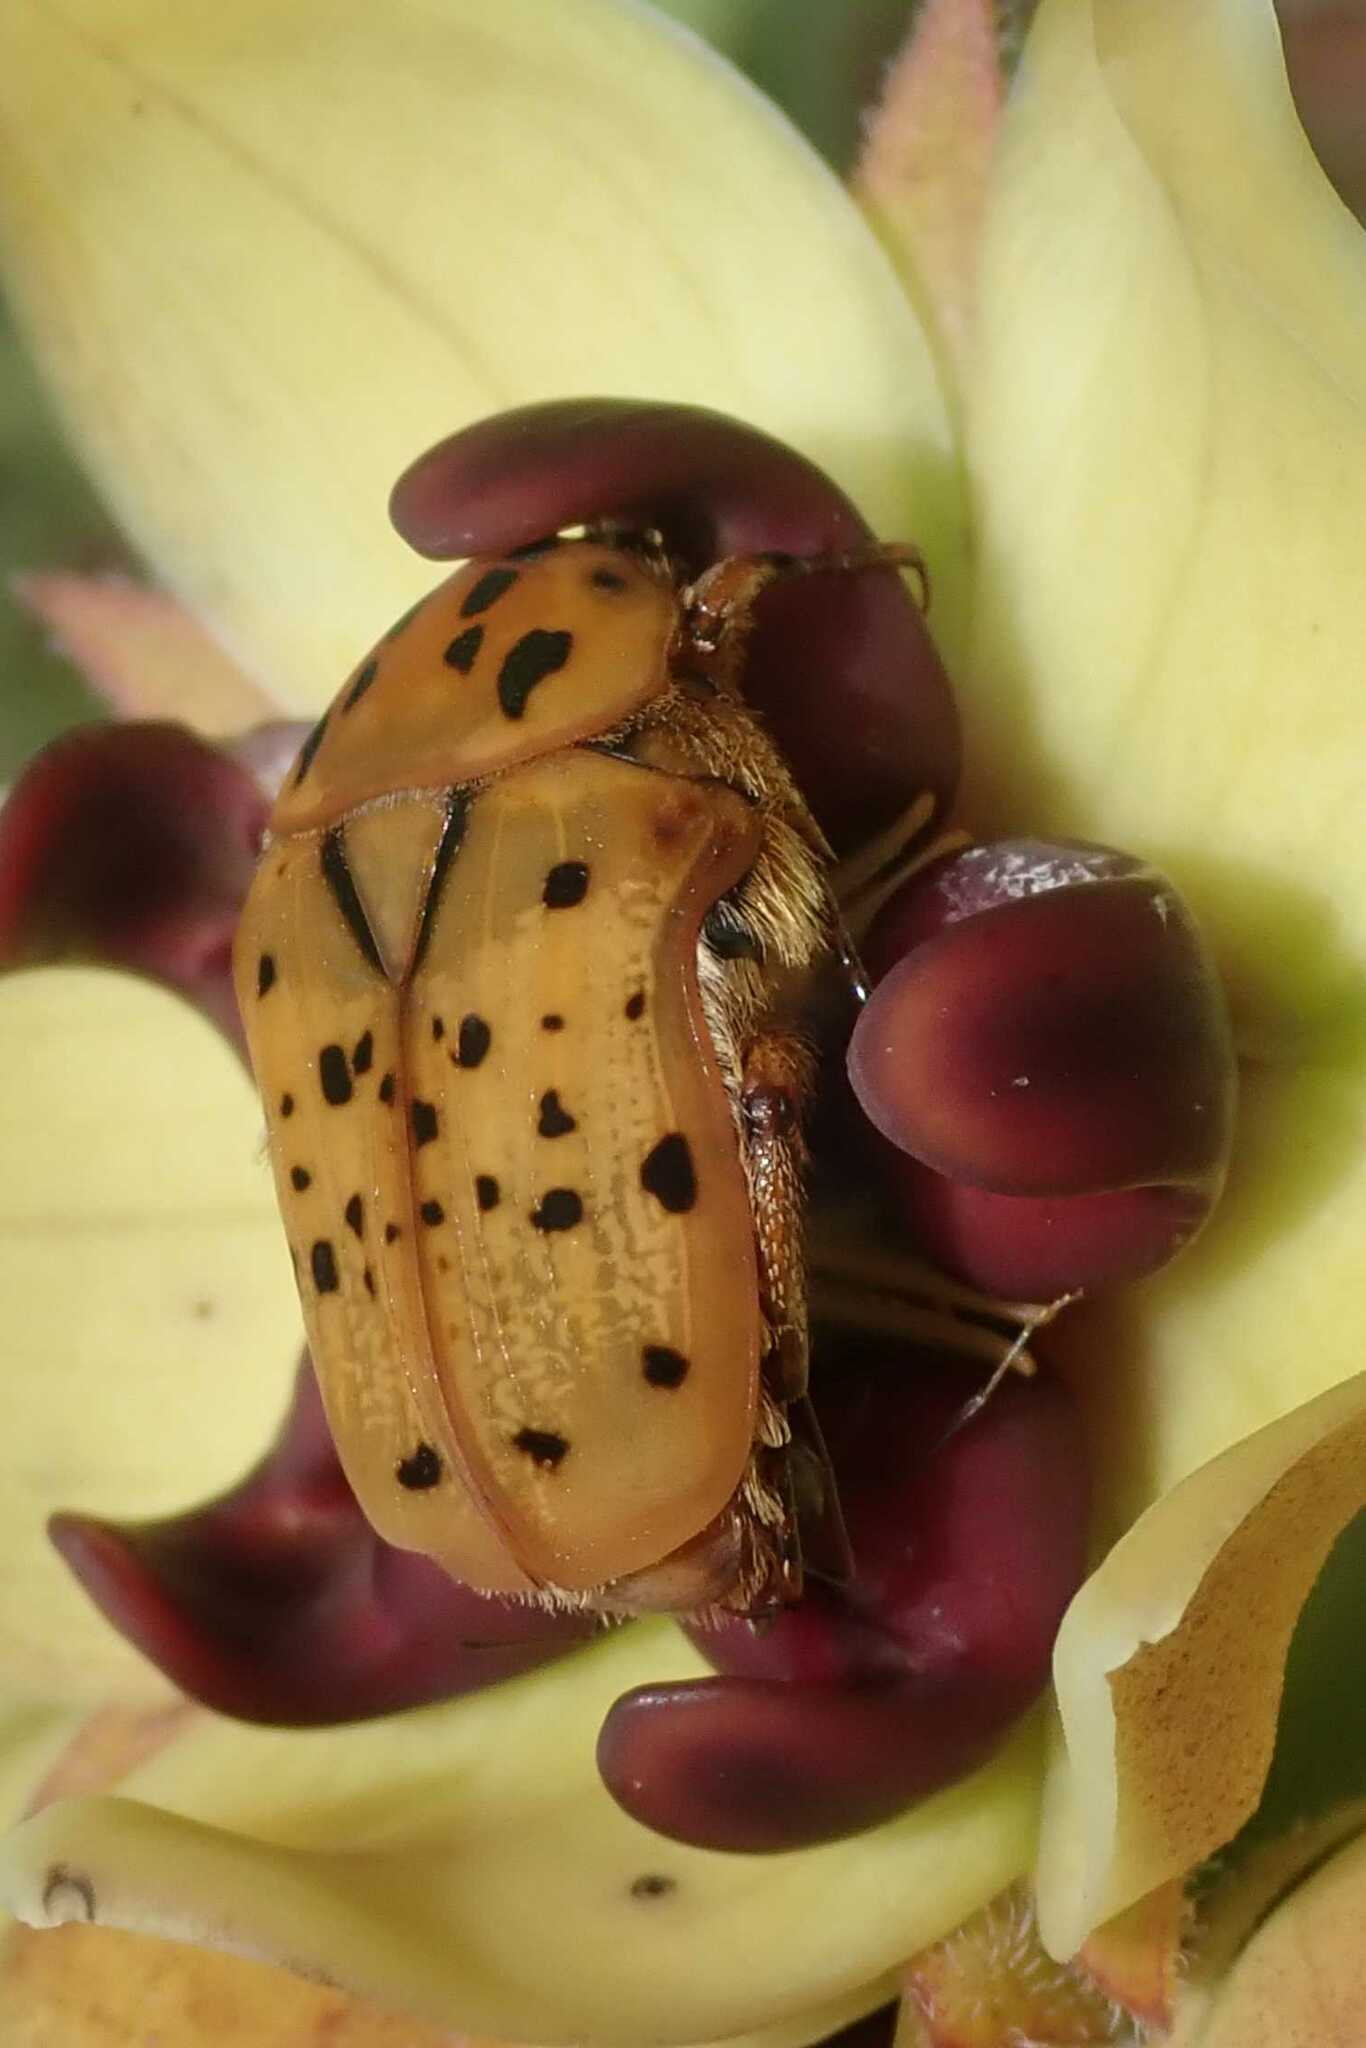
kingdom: Animalia
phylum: Arthropoda
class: Insecta
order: Coleoptera
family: Scarabaeidae
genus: Atrichelaphinis
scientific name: Atrichelaphinis nigropunctulata
